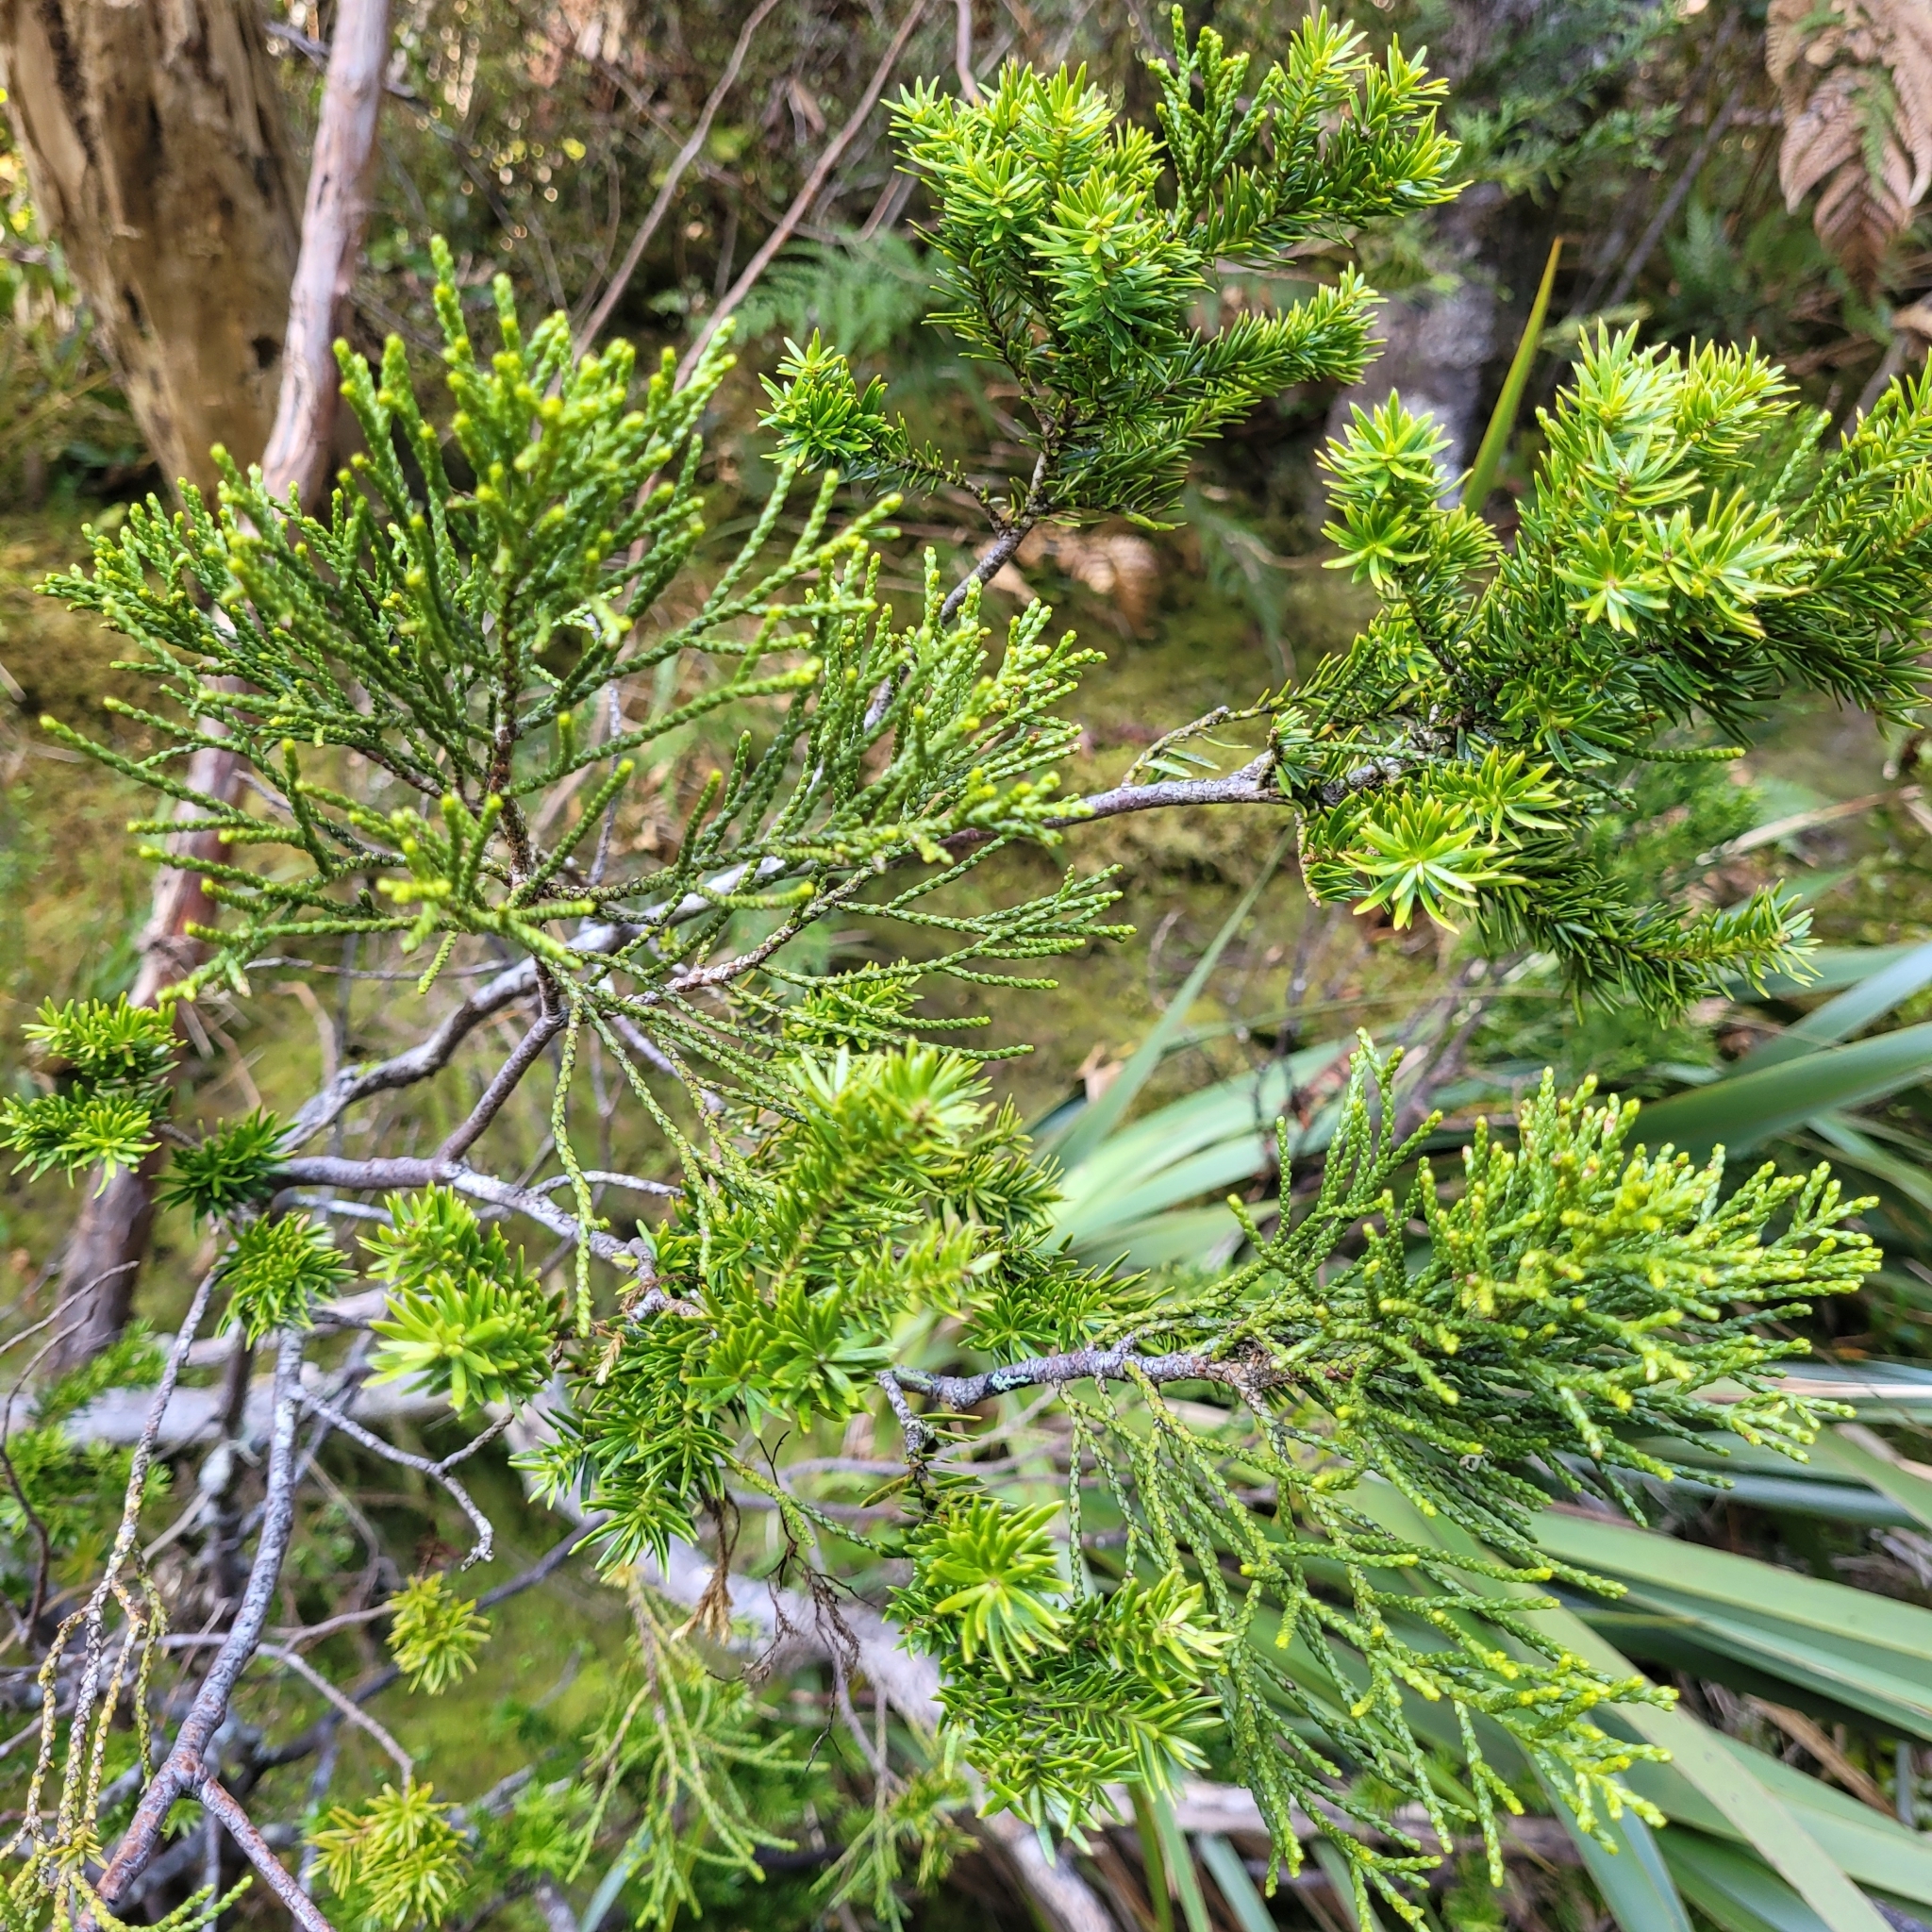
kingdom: Plantae
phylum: Tracheophyta
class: Pinopsida
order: Pinales
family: Podocarpaceae
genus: Halocarpus
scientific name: Halocarpus biformis
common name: Alpine tarwood
